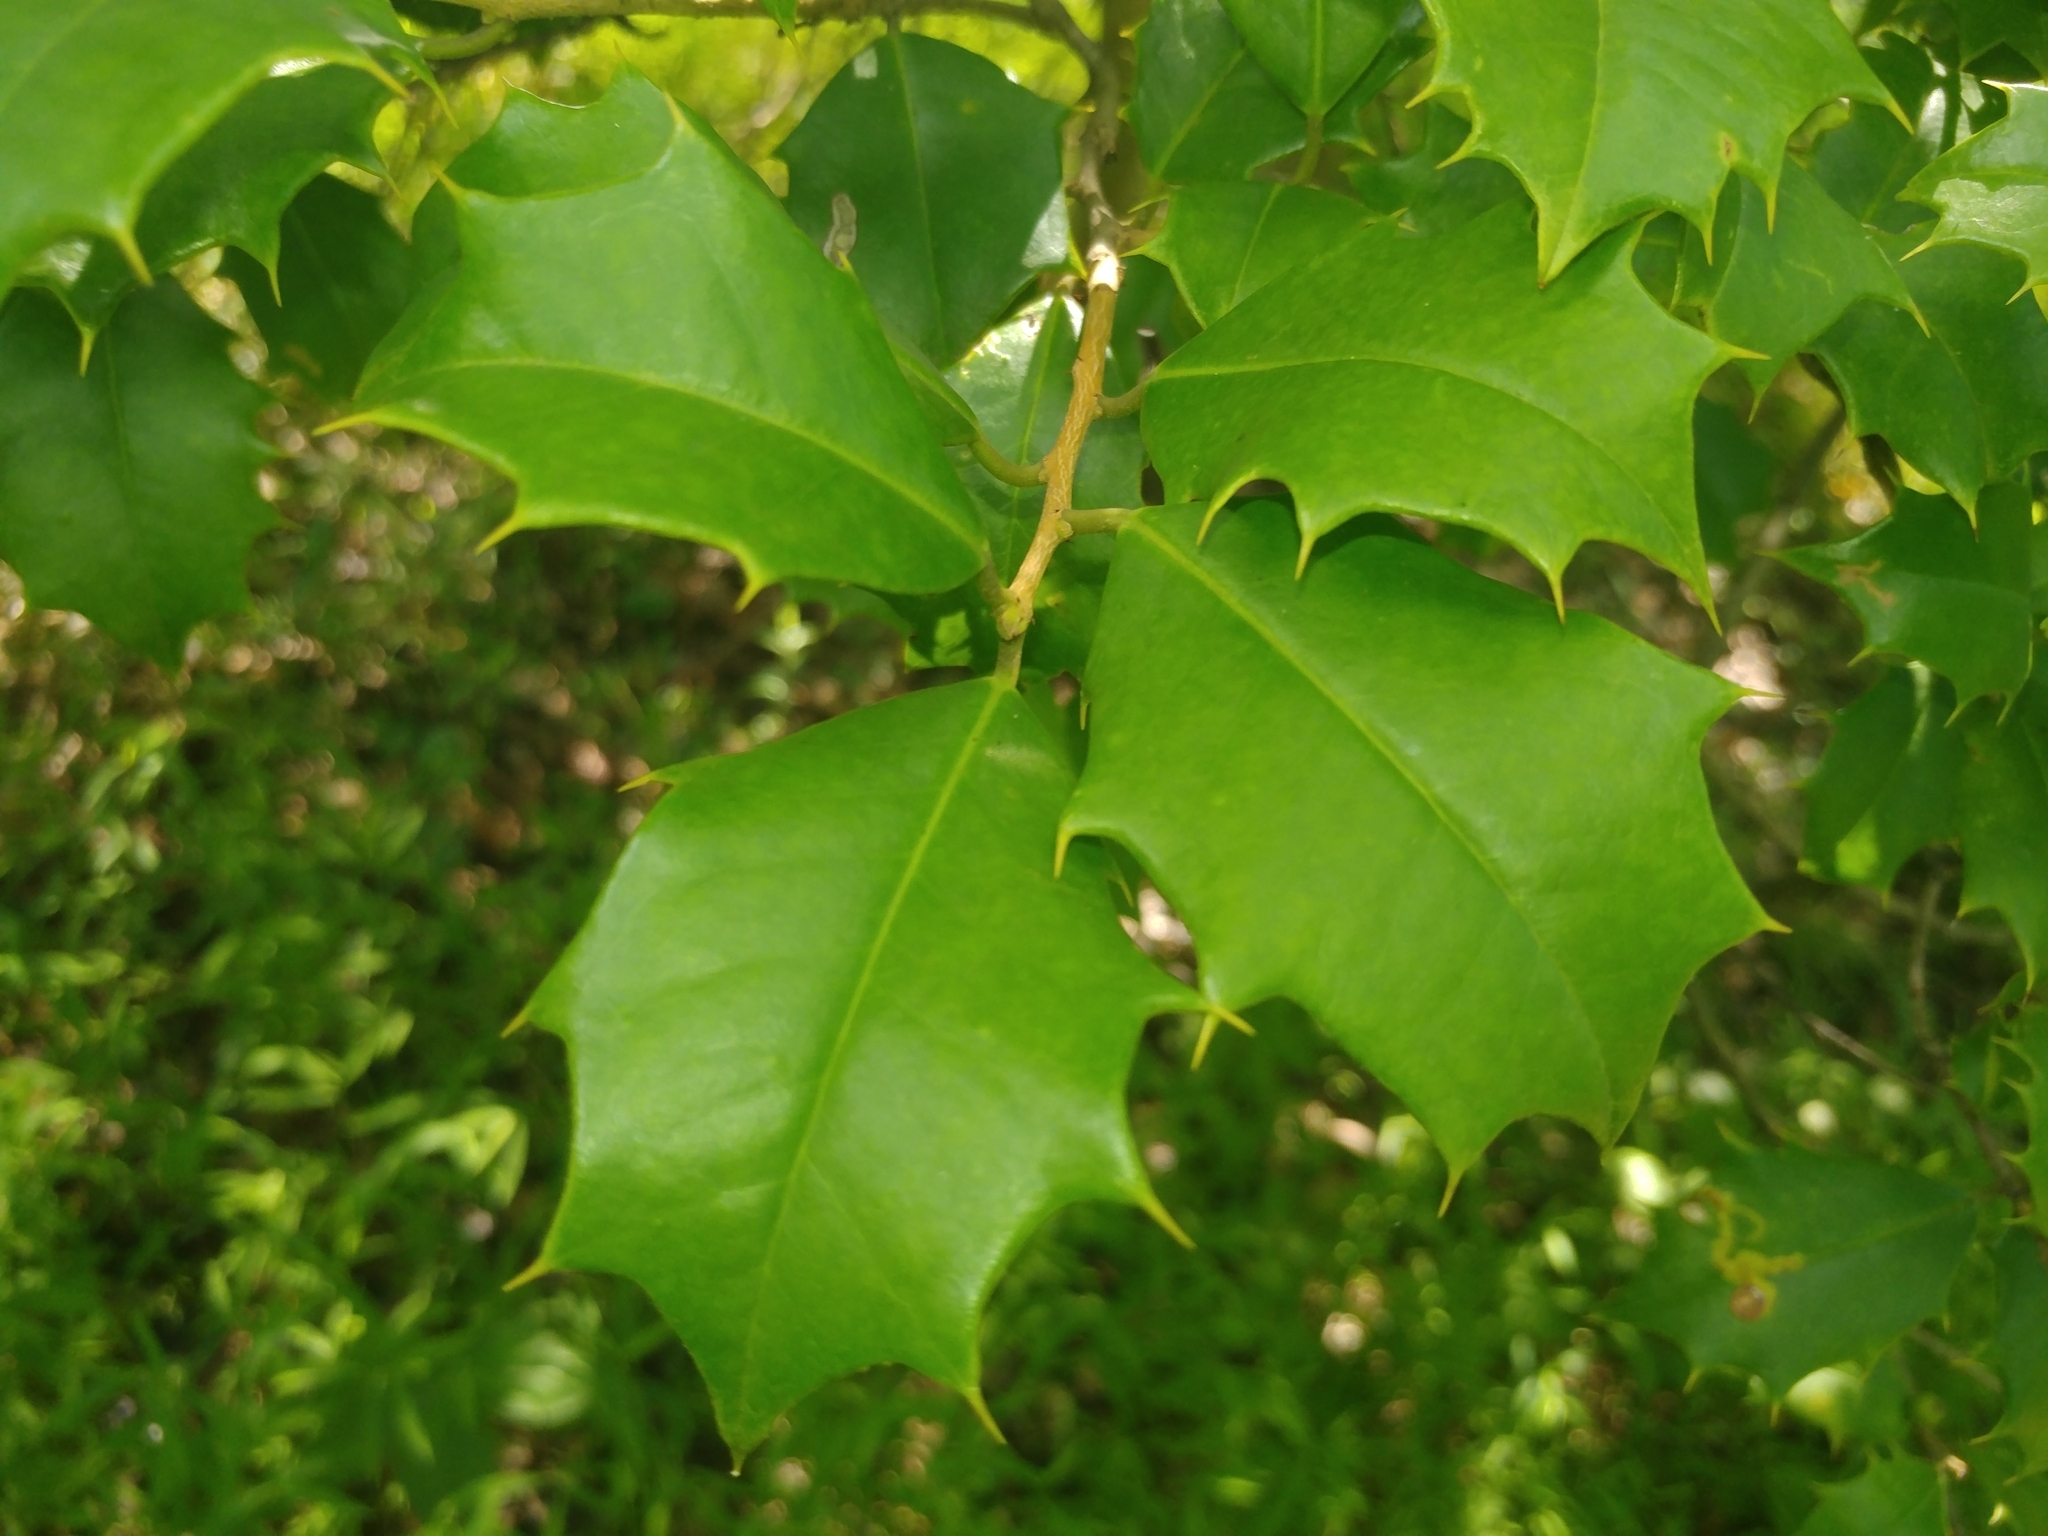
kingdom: Plantae
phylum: Tracheophyta
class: Magnoliopsida
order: Aquifoliales
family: Aquifoliaceae
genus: Ilex
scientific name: Ilex opaca
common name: American holly
